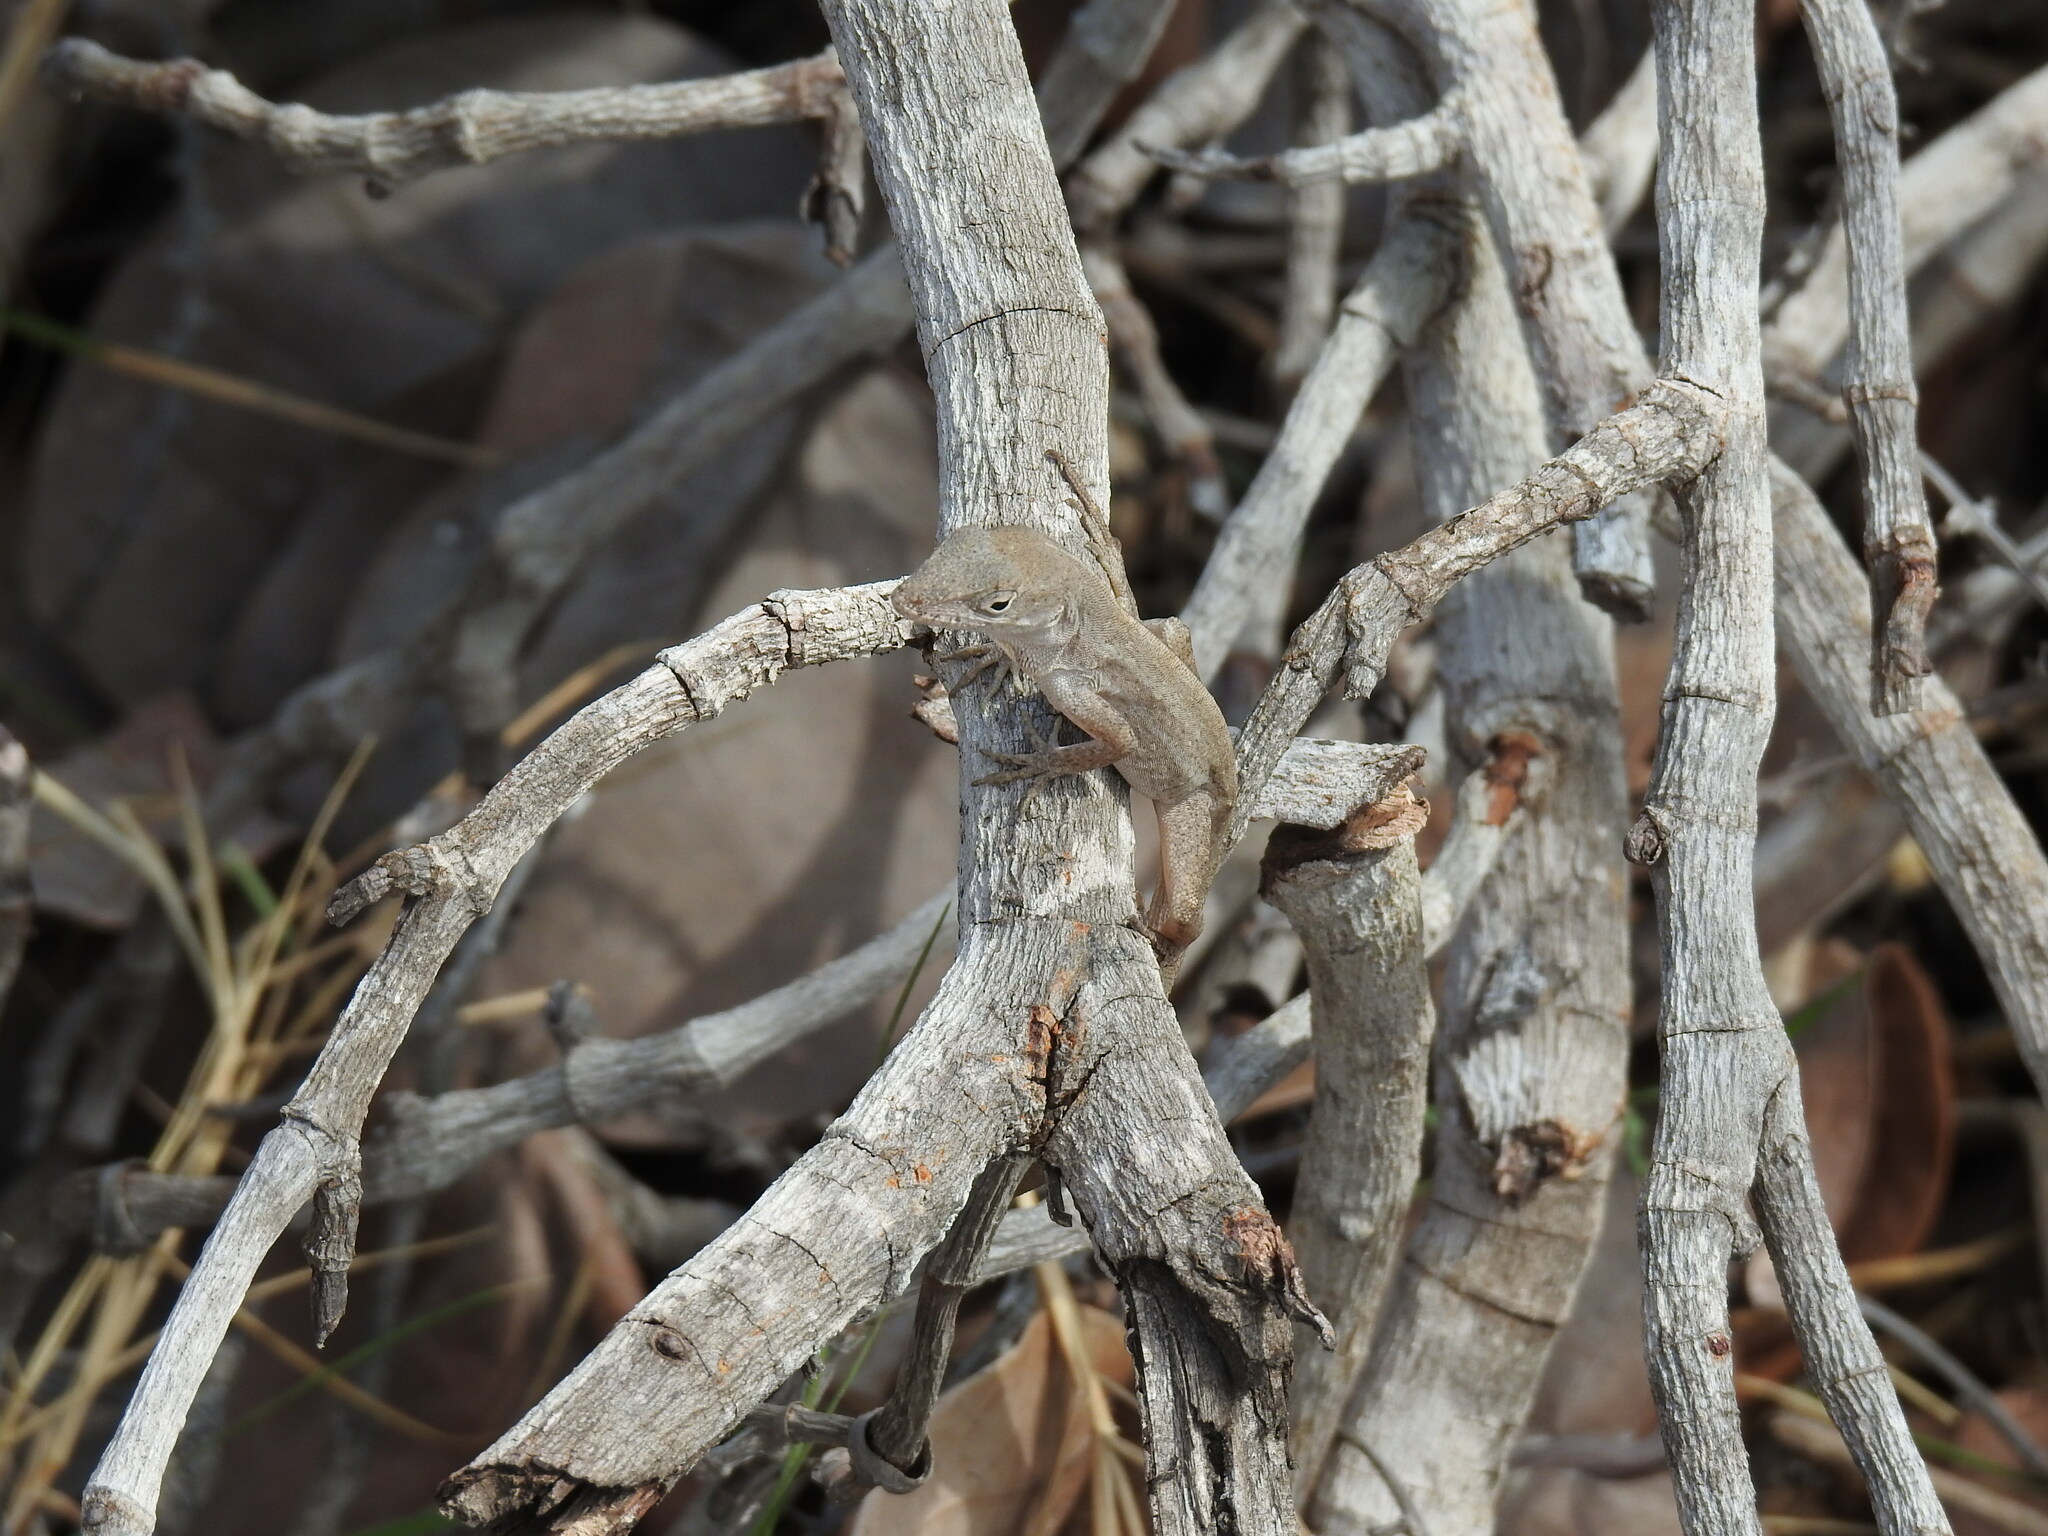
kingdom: Animalia
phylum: Chordata
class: Squamata
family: Dactyloidae
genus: Anolis
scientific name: Anolis sagrei
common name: Brown anole
